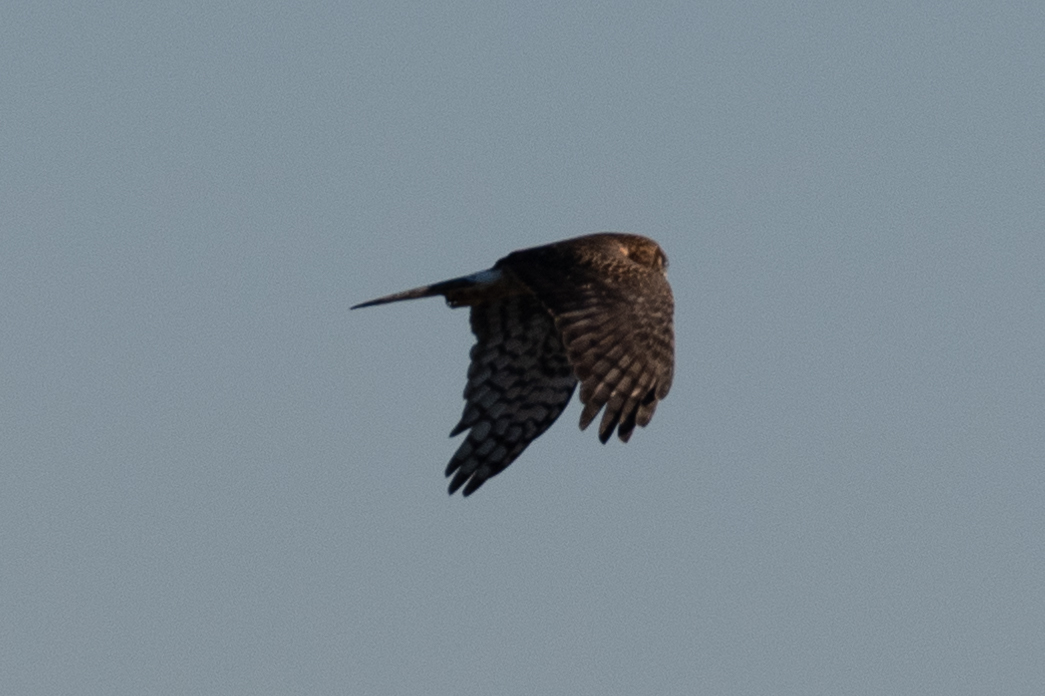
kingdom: Animalia
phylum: Chordata
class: Aves
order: Accipitriformes
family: Accipitridae
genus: Circus
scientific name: Circus cyaneus
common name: Hen harrier
